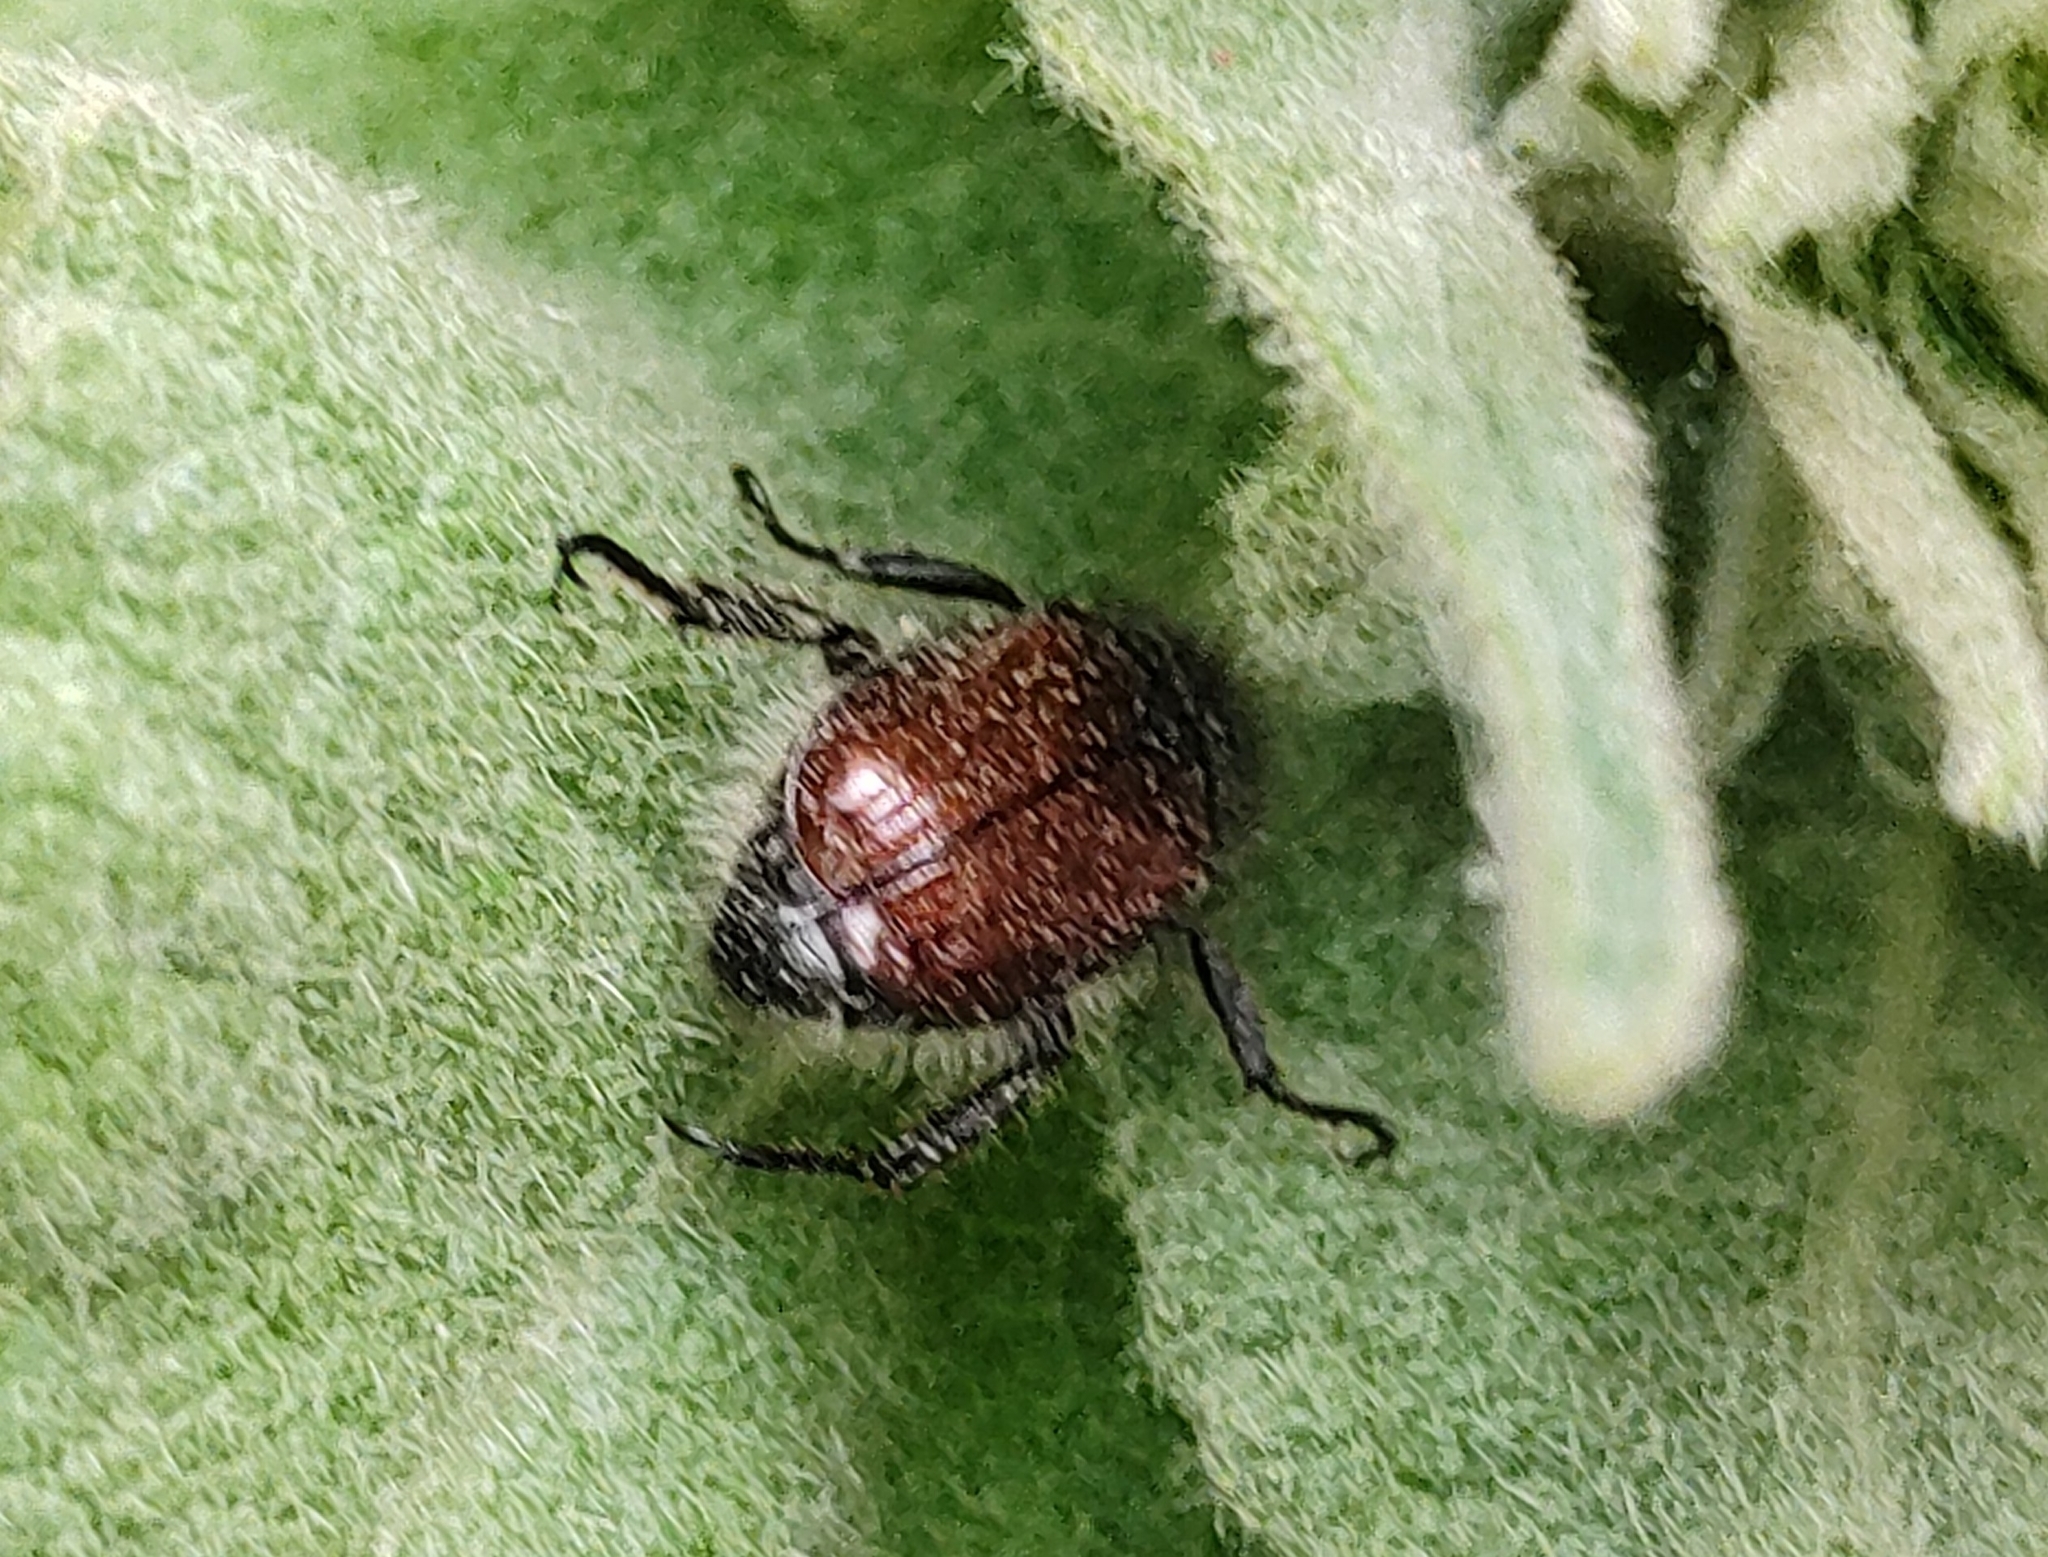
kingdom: Animalia
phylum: Arthropoda
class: Insecta
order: Coleoptera
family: Scarabaeidae
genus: Phyllopertha
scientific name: Phyllopertha horticola
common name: Garden chafer
